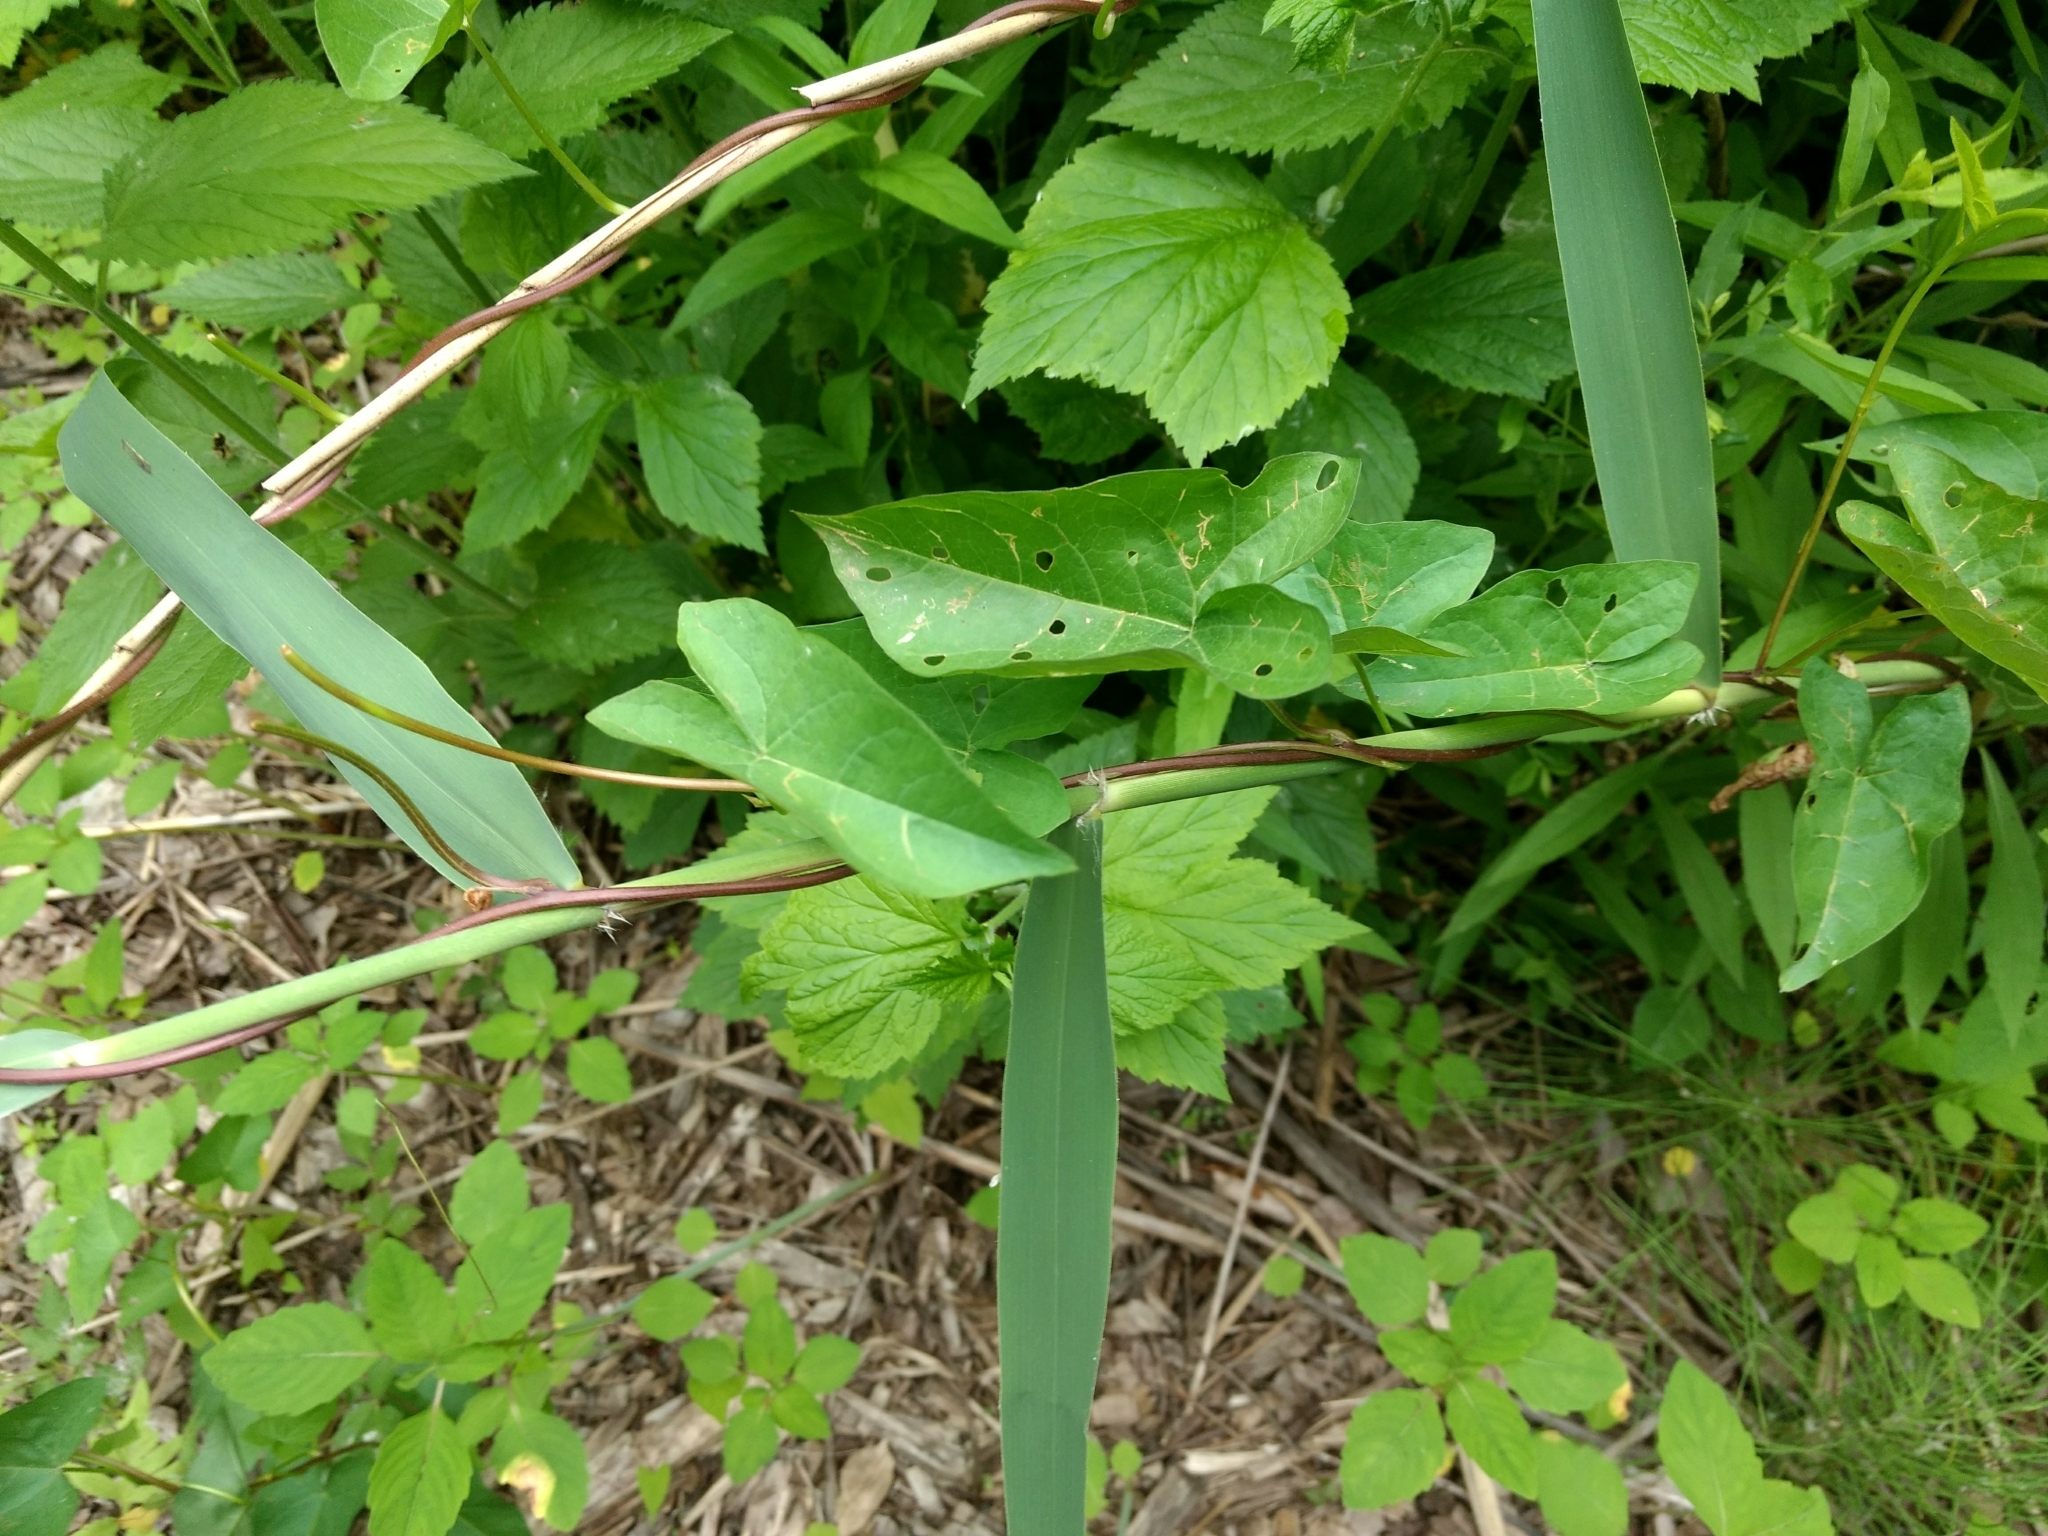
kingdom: Plantae
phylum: Tracheophyta
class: Magnoliopsida
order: Solanales
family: Convolvulaceae
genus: Calystegia
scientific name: Calystegia sepium
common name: Hedge bindweed
